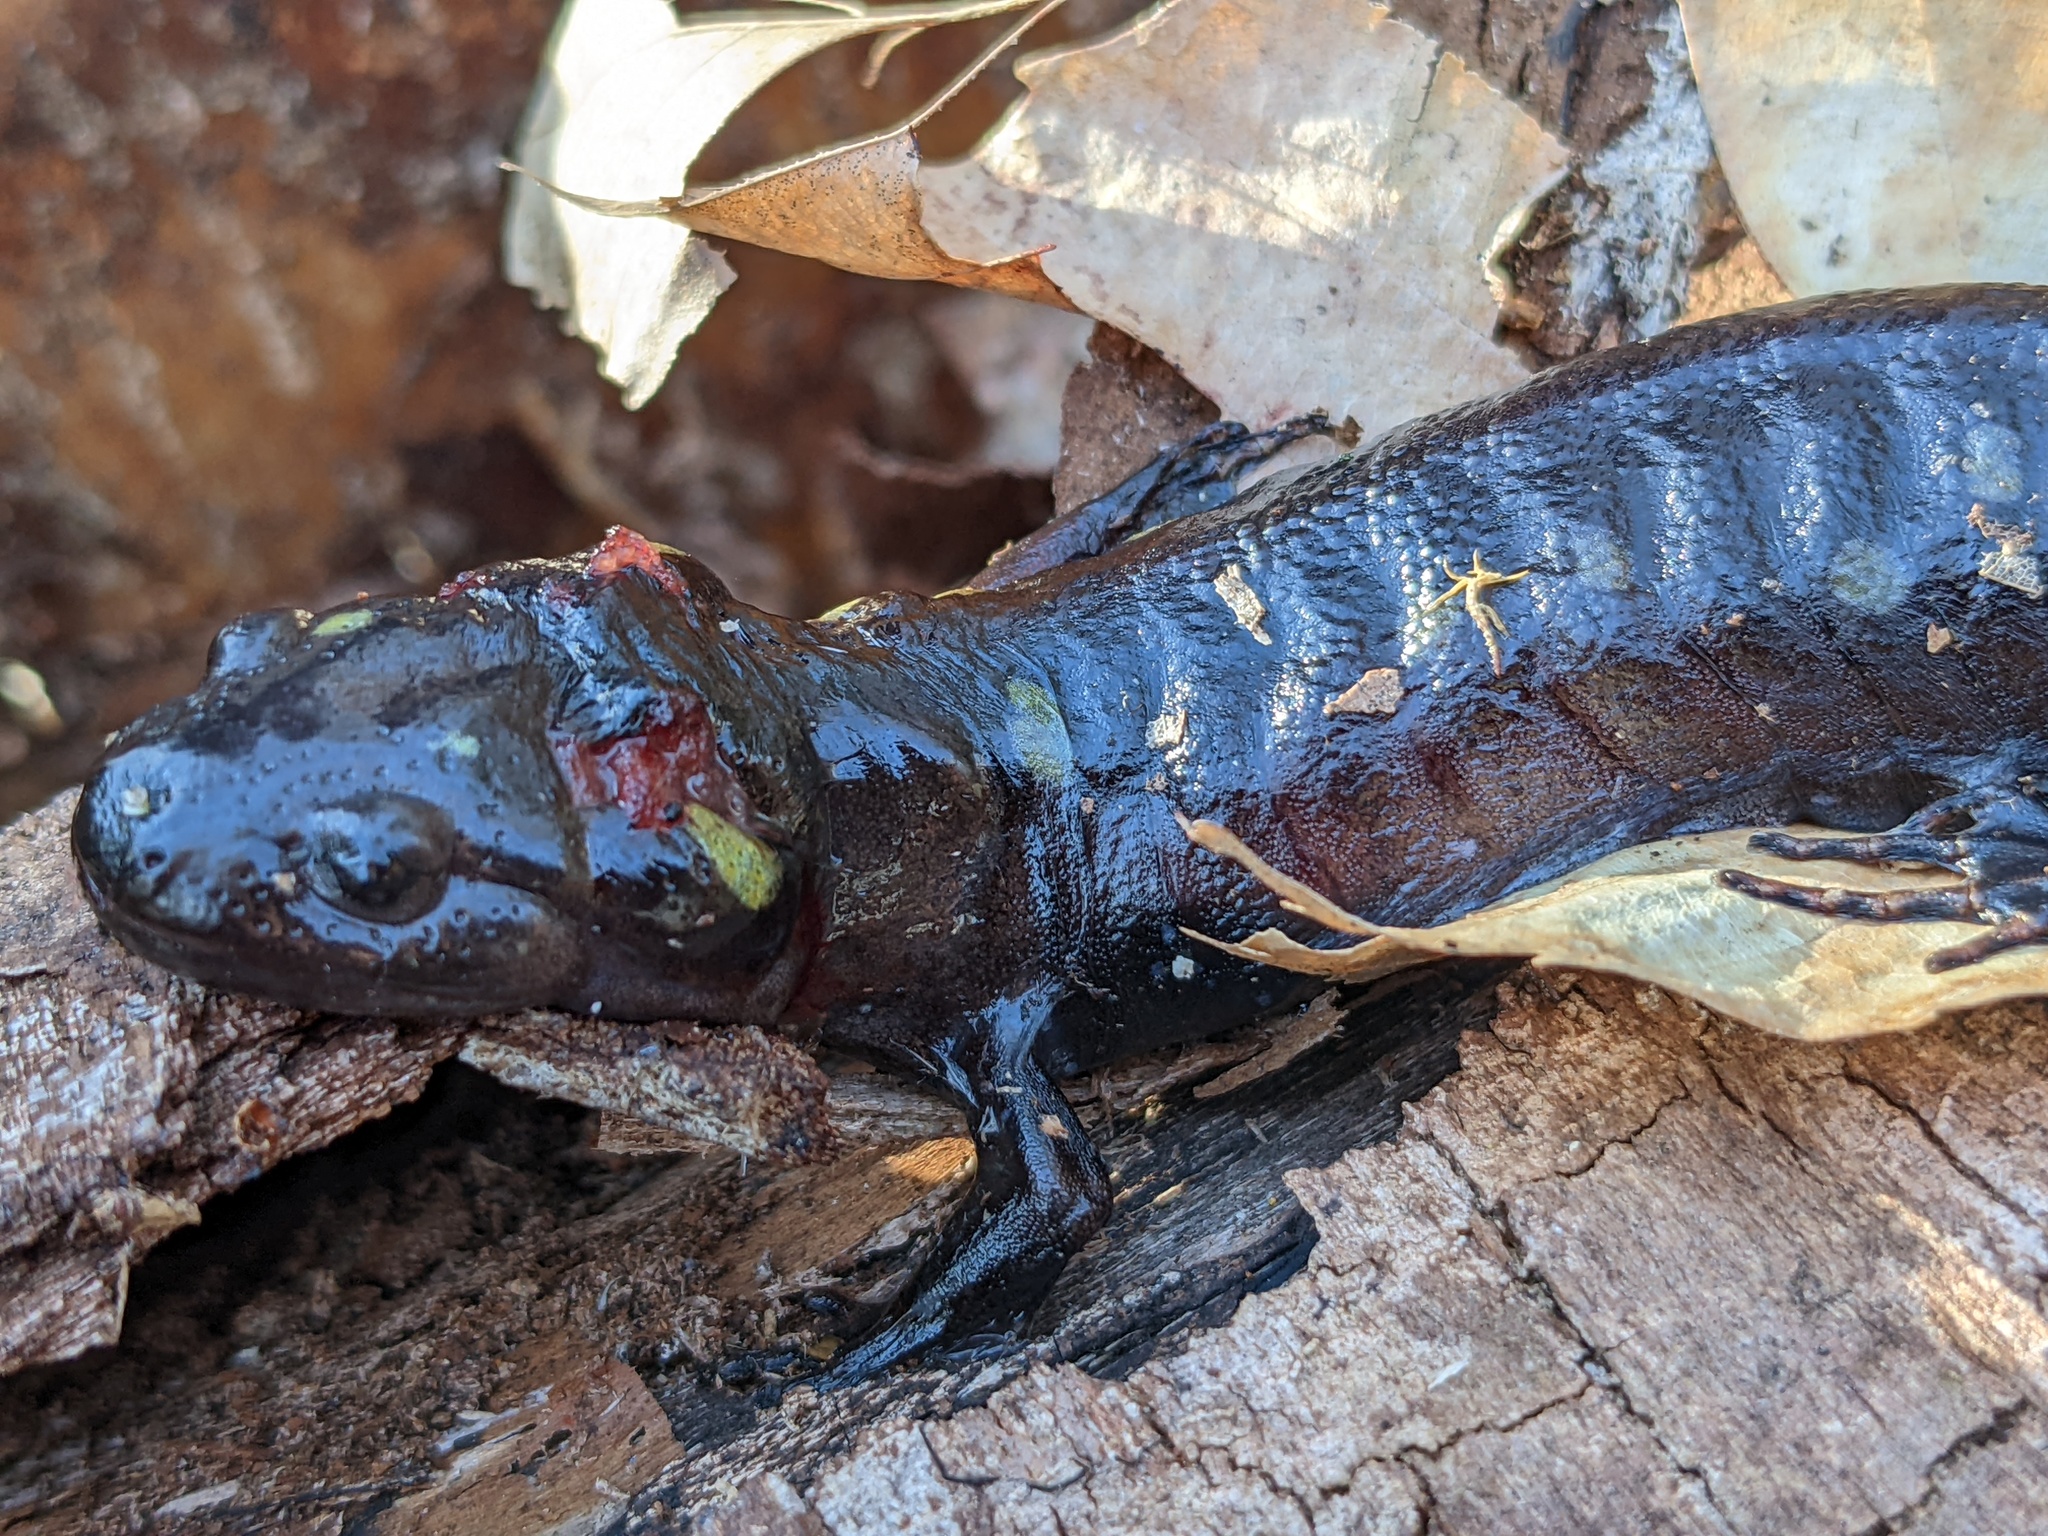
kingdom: Animalia
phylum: Chordata
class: Amphibia
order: Caudata
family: Ambystomatidae
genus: Ambystoma
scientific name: Ambystoma maculatum
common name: Spotted salamander
